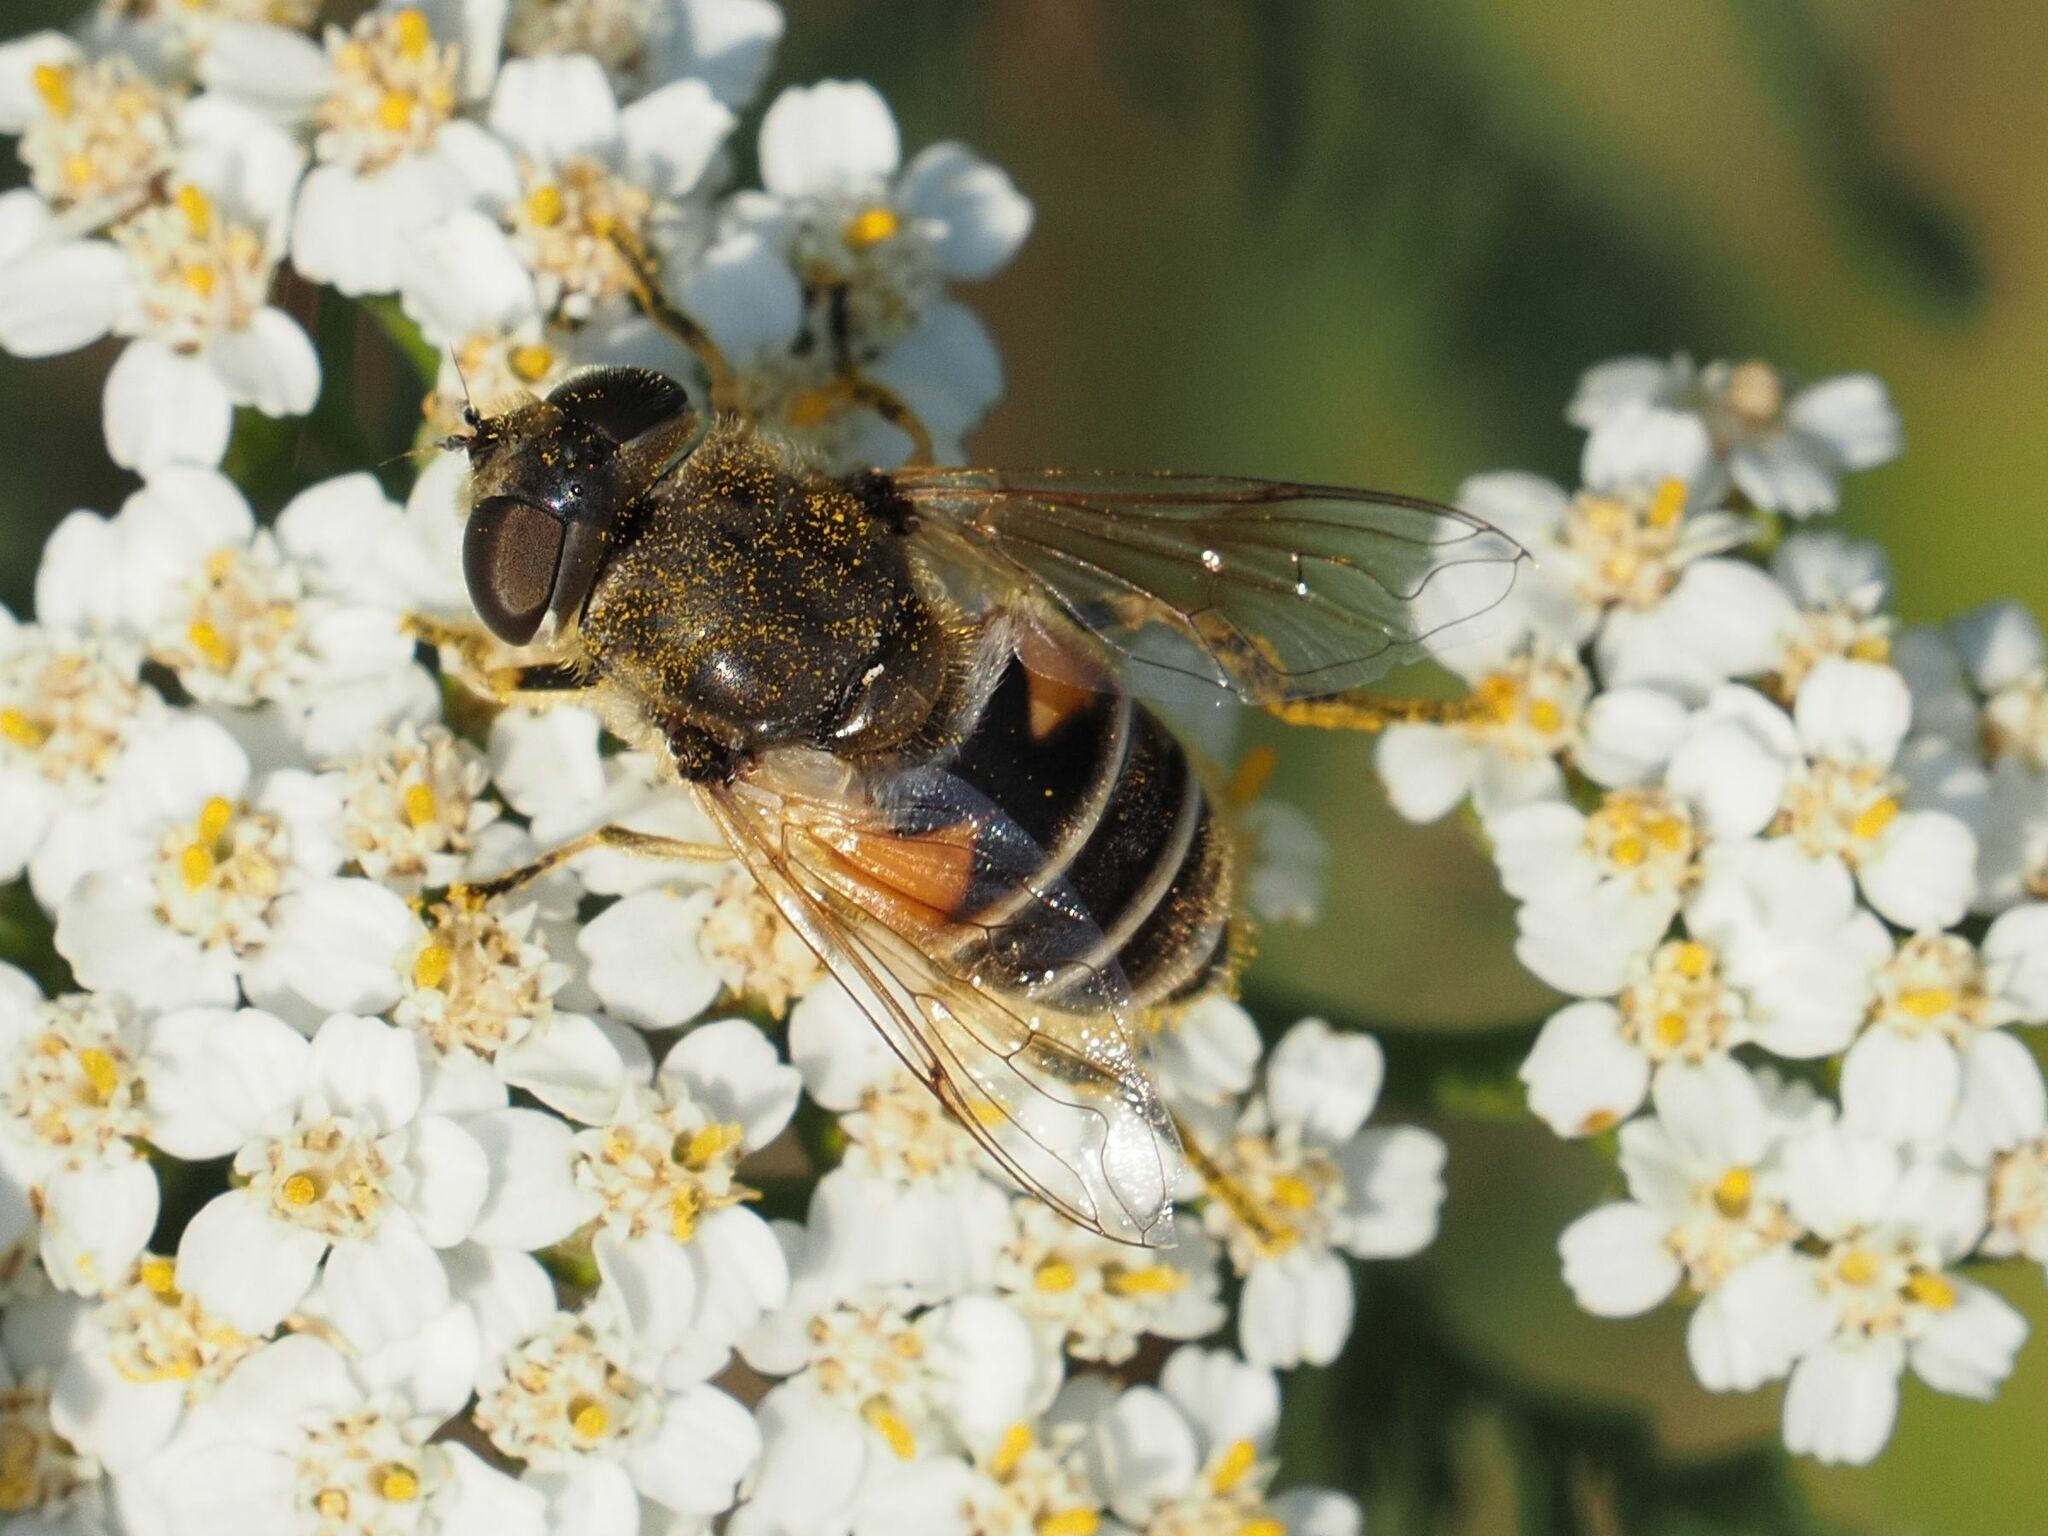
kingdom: Animalia
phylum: Arthropoda
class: Insecta
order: Diptera
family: Syrphidae
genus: Eristalis
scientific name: Eristalis arbustorum
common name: Hover fly
